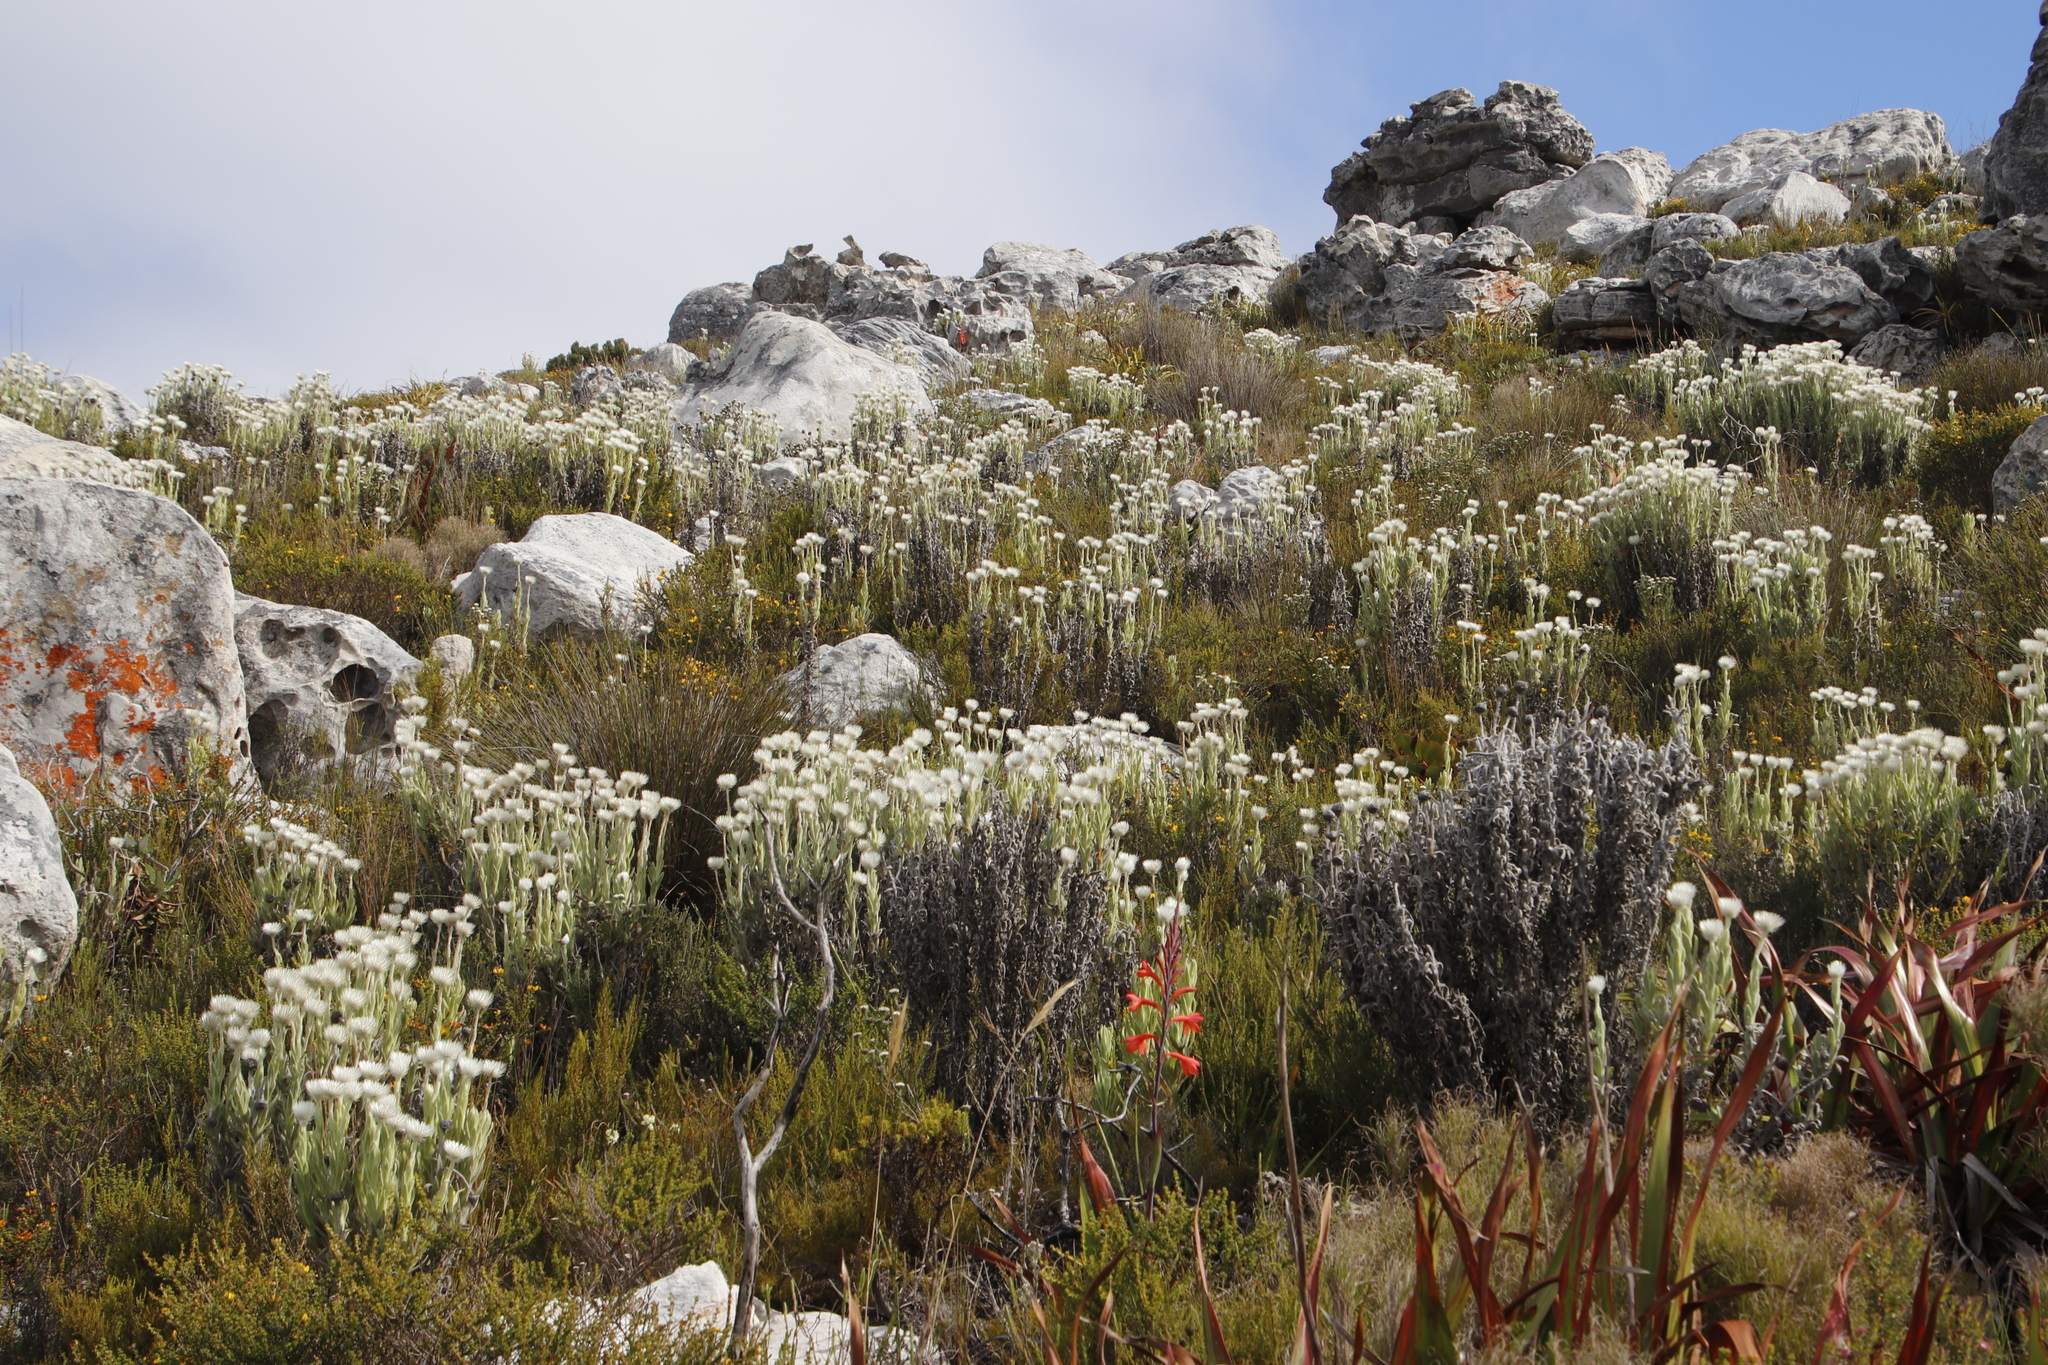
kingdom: Plantae
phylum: Tracheophyta
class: Magnoliopsida
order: Asterales
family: Asteraceae
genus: Syncarpha
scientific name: Syncarpha vestita
